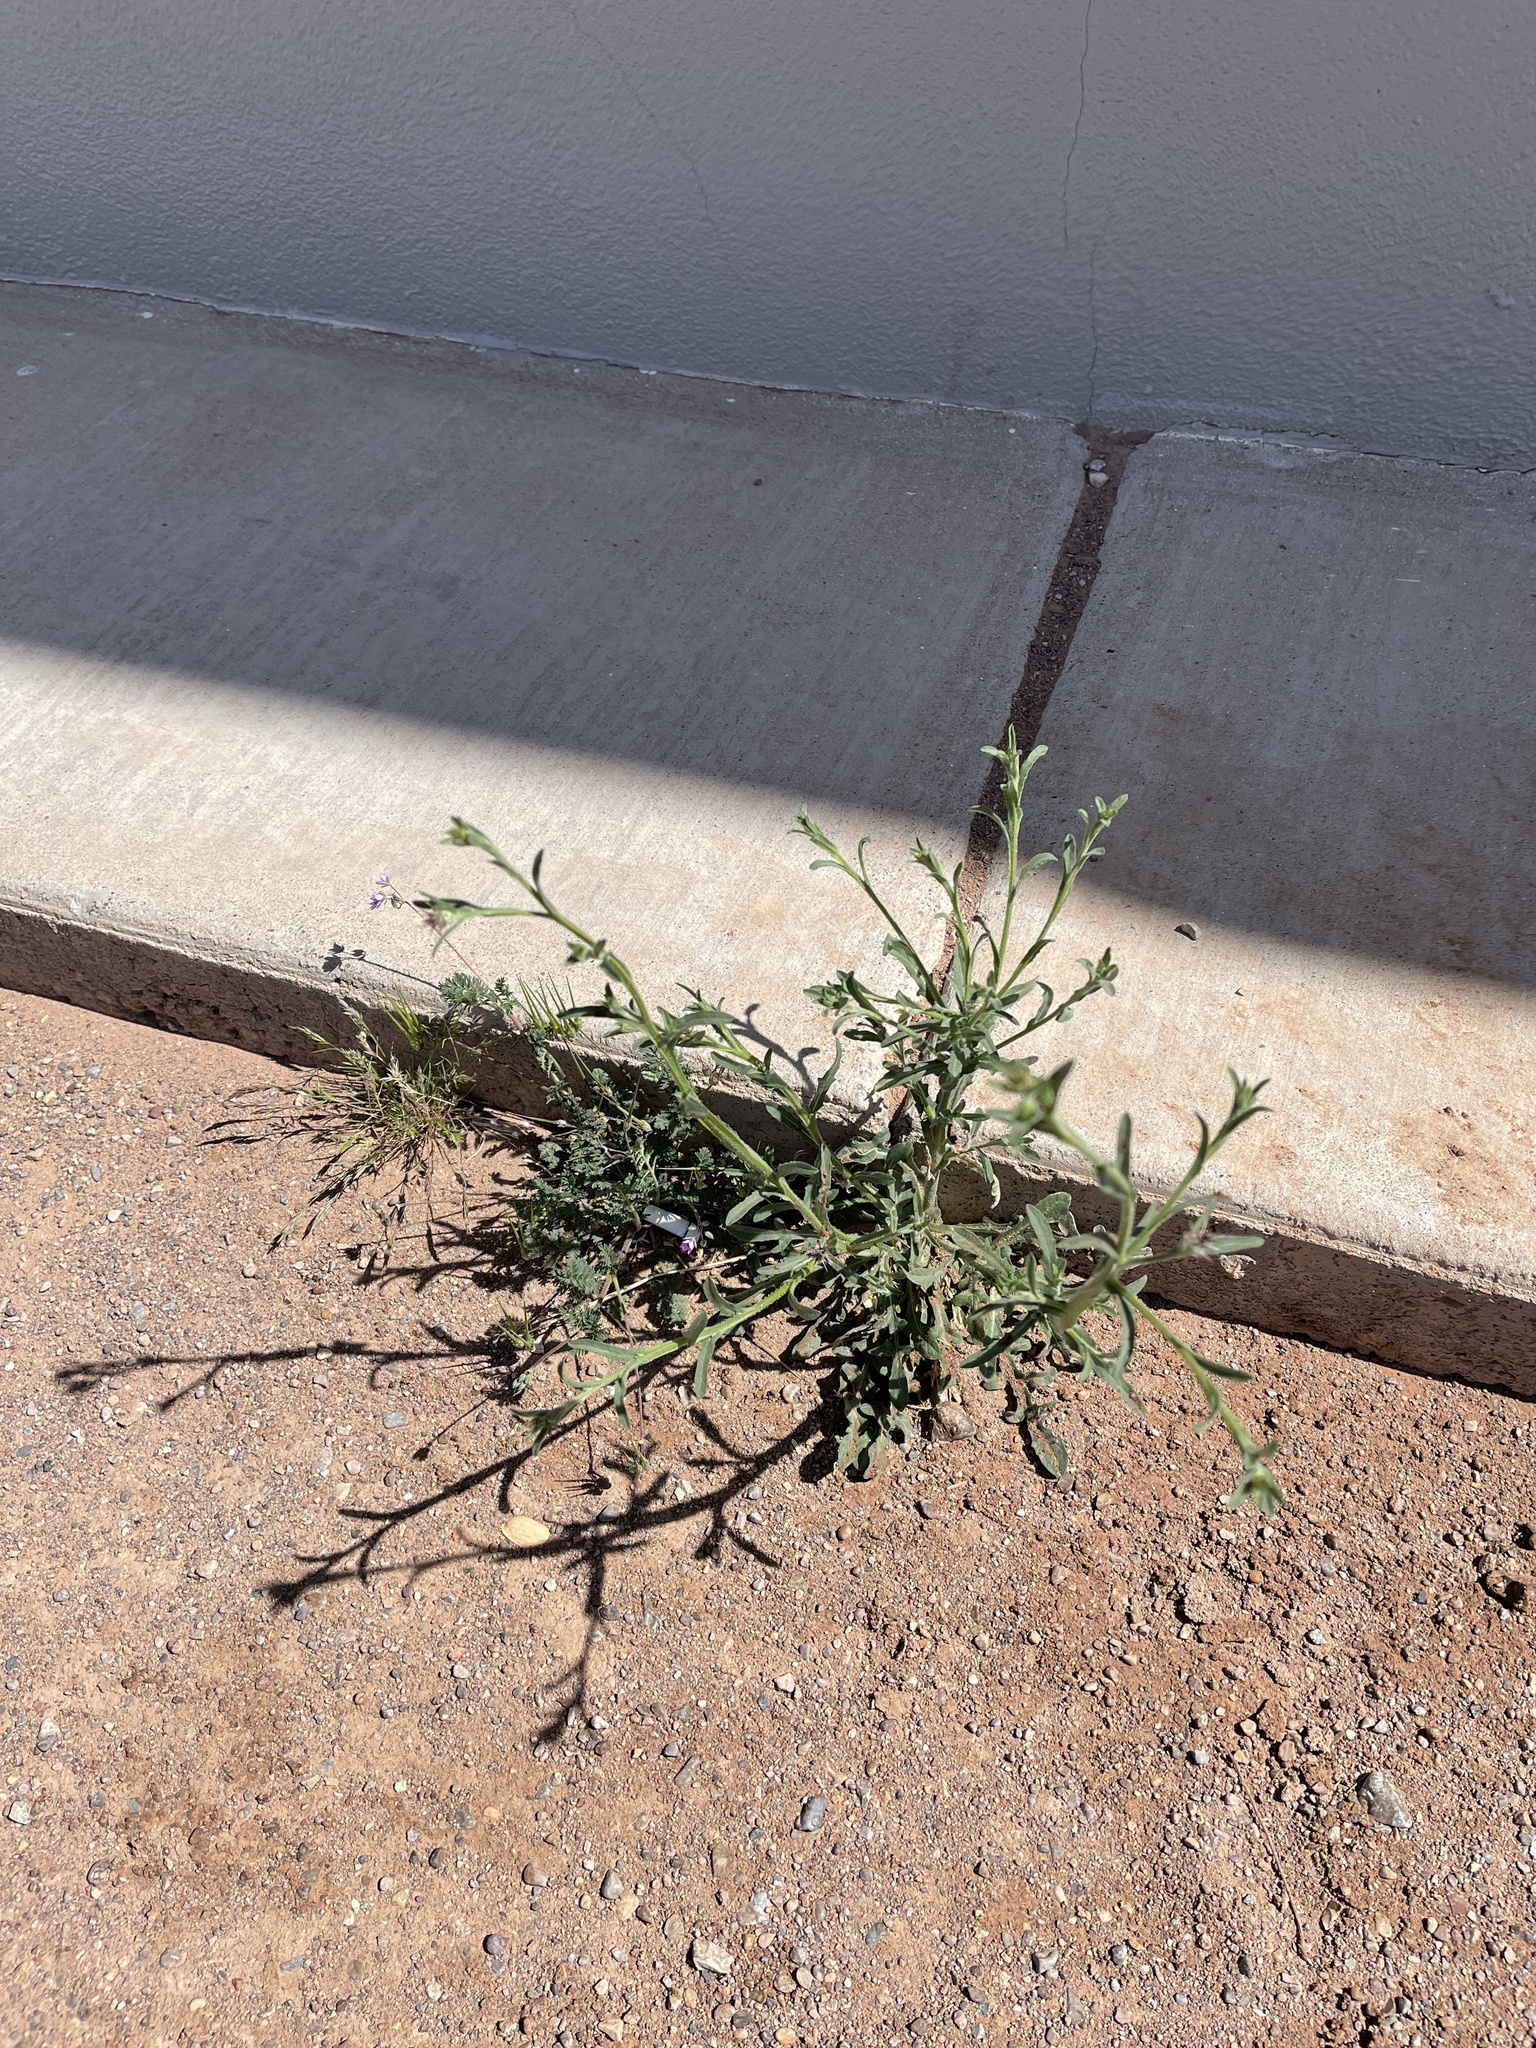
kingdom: Plantae
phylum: Tracheophyta
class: Magnoliopsida
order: Asterales
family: Asteraceae
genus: Centaurea
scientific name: Centaurea melitensis
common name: Maltese star-thistle
